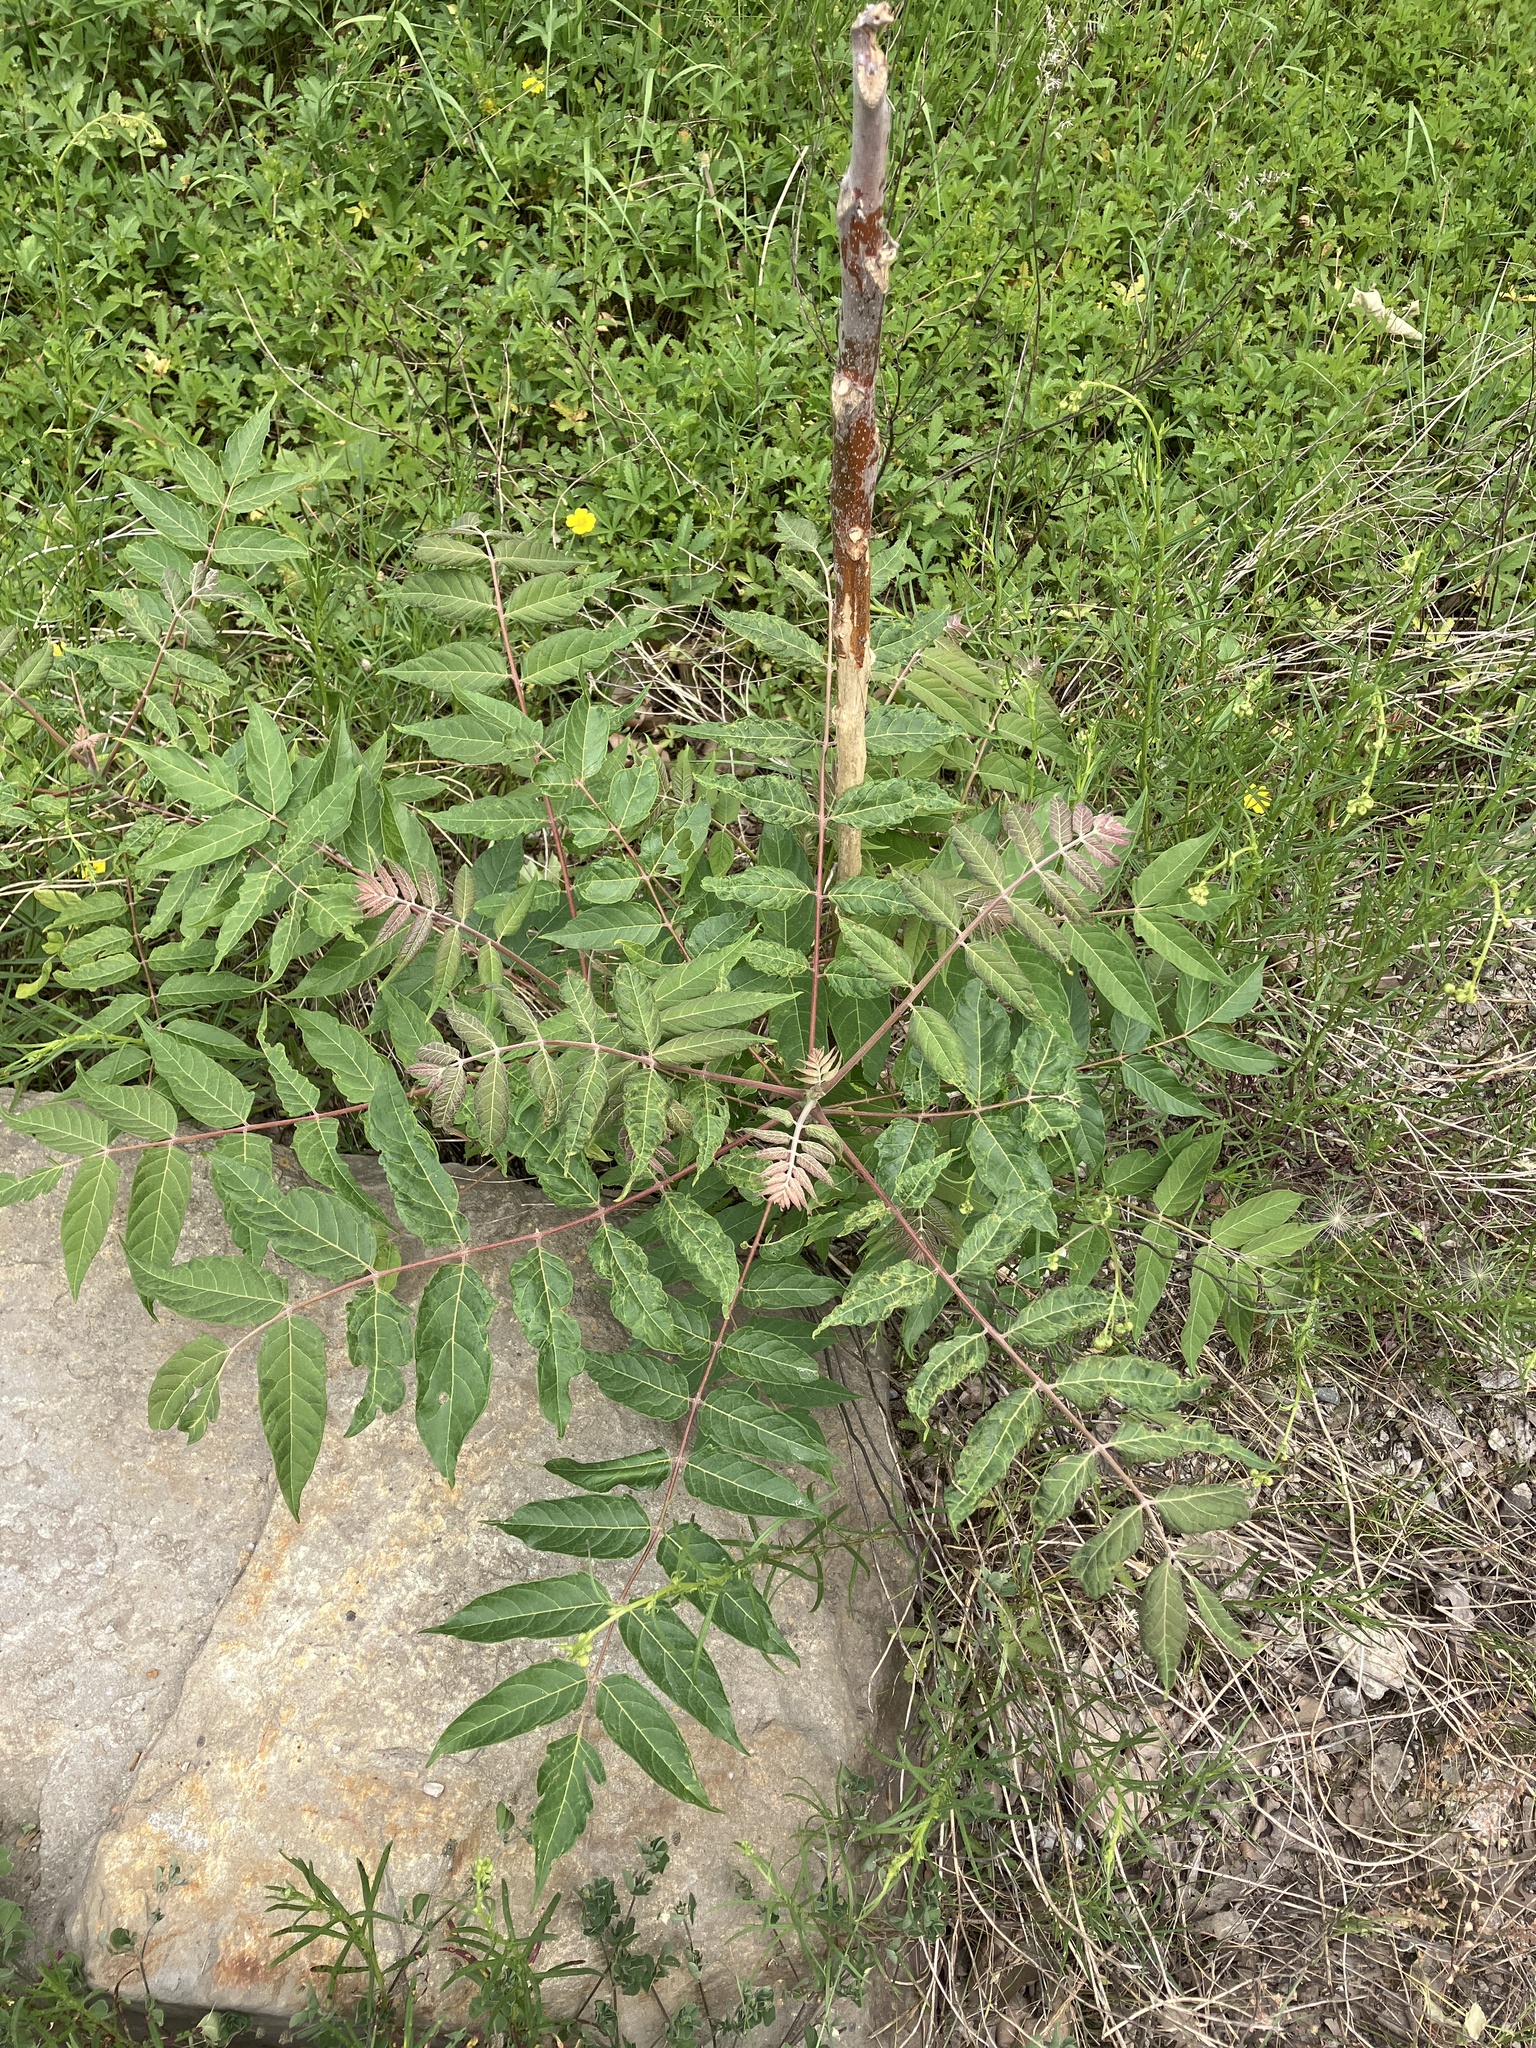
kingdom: Plantae
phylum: Tracheophyta
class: Magnoliopsida
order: Sapindales
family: Simaroubaceae
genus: Ailanthus
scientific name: Ailanthus altissima
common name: Tree-of-heaven
